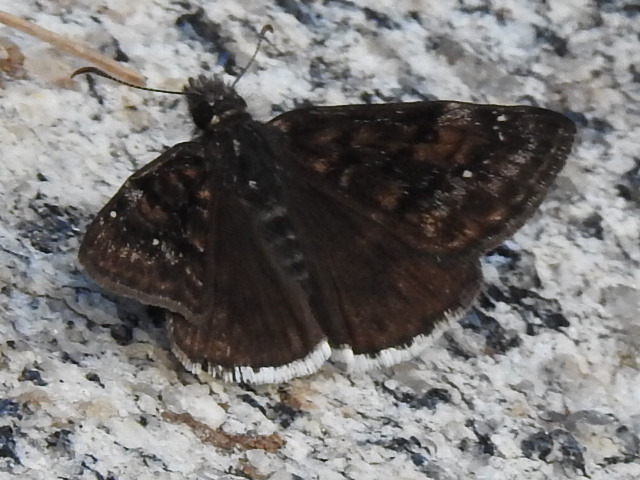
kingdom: Animalia
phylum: Arthropoda
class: Insecta
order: Lepidoptera
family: Hesperiidae
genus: Erynnis
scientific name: Erynnis funeralis
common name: Funereal duskywing
